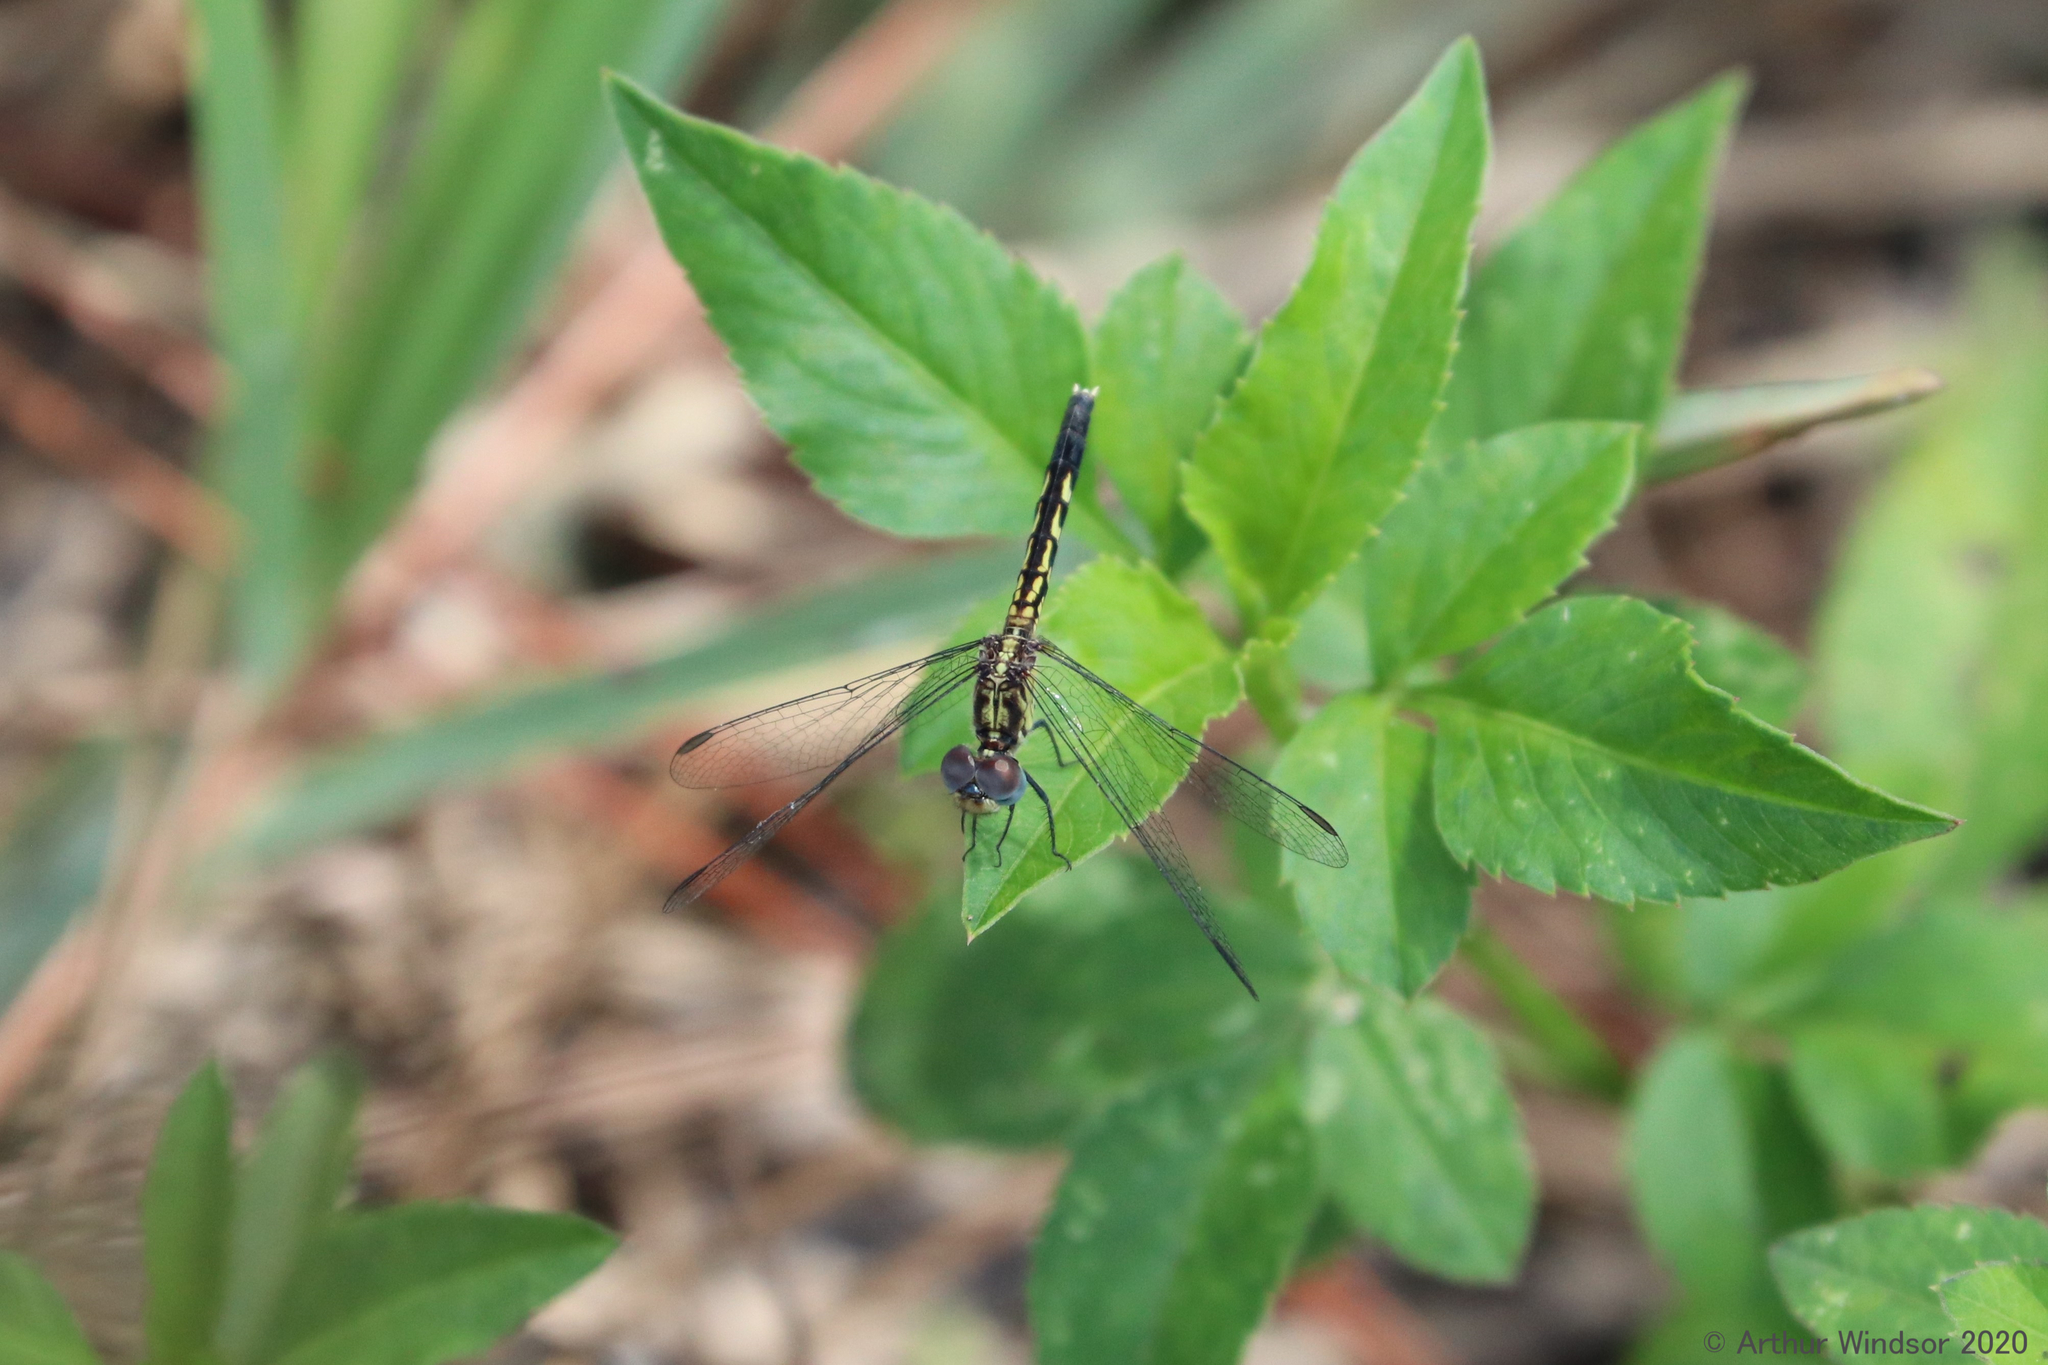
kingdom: Animalia
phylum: Arthropoda
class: Insecta
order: Odonata
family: Libellulidae
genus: Erythrodiplax
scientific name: Erythrodiplax minuscula
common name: Little blue dragonlet
